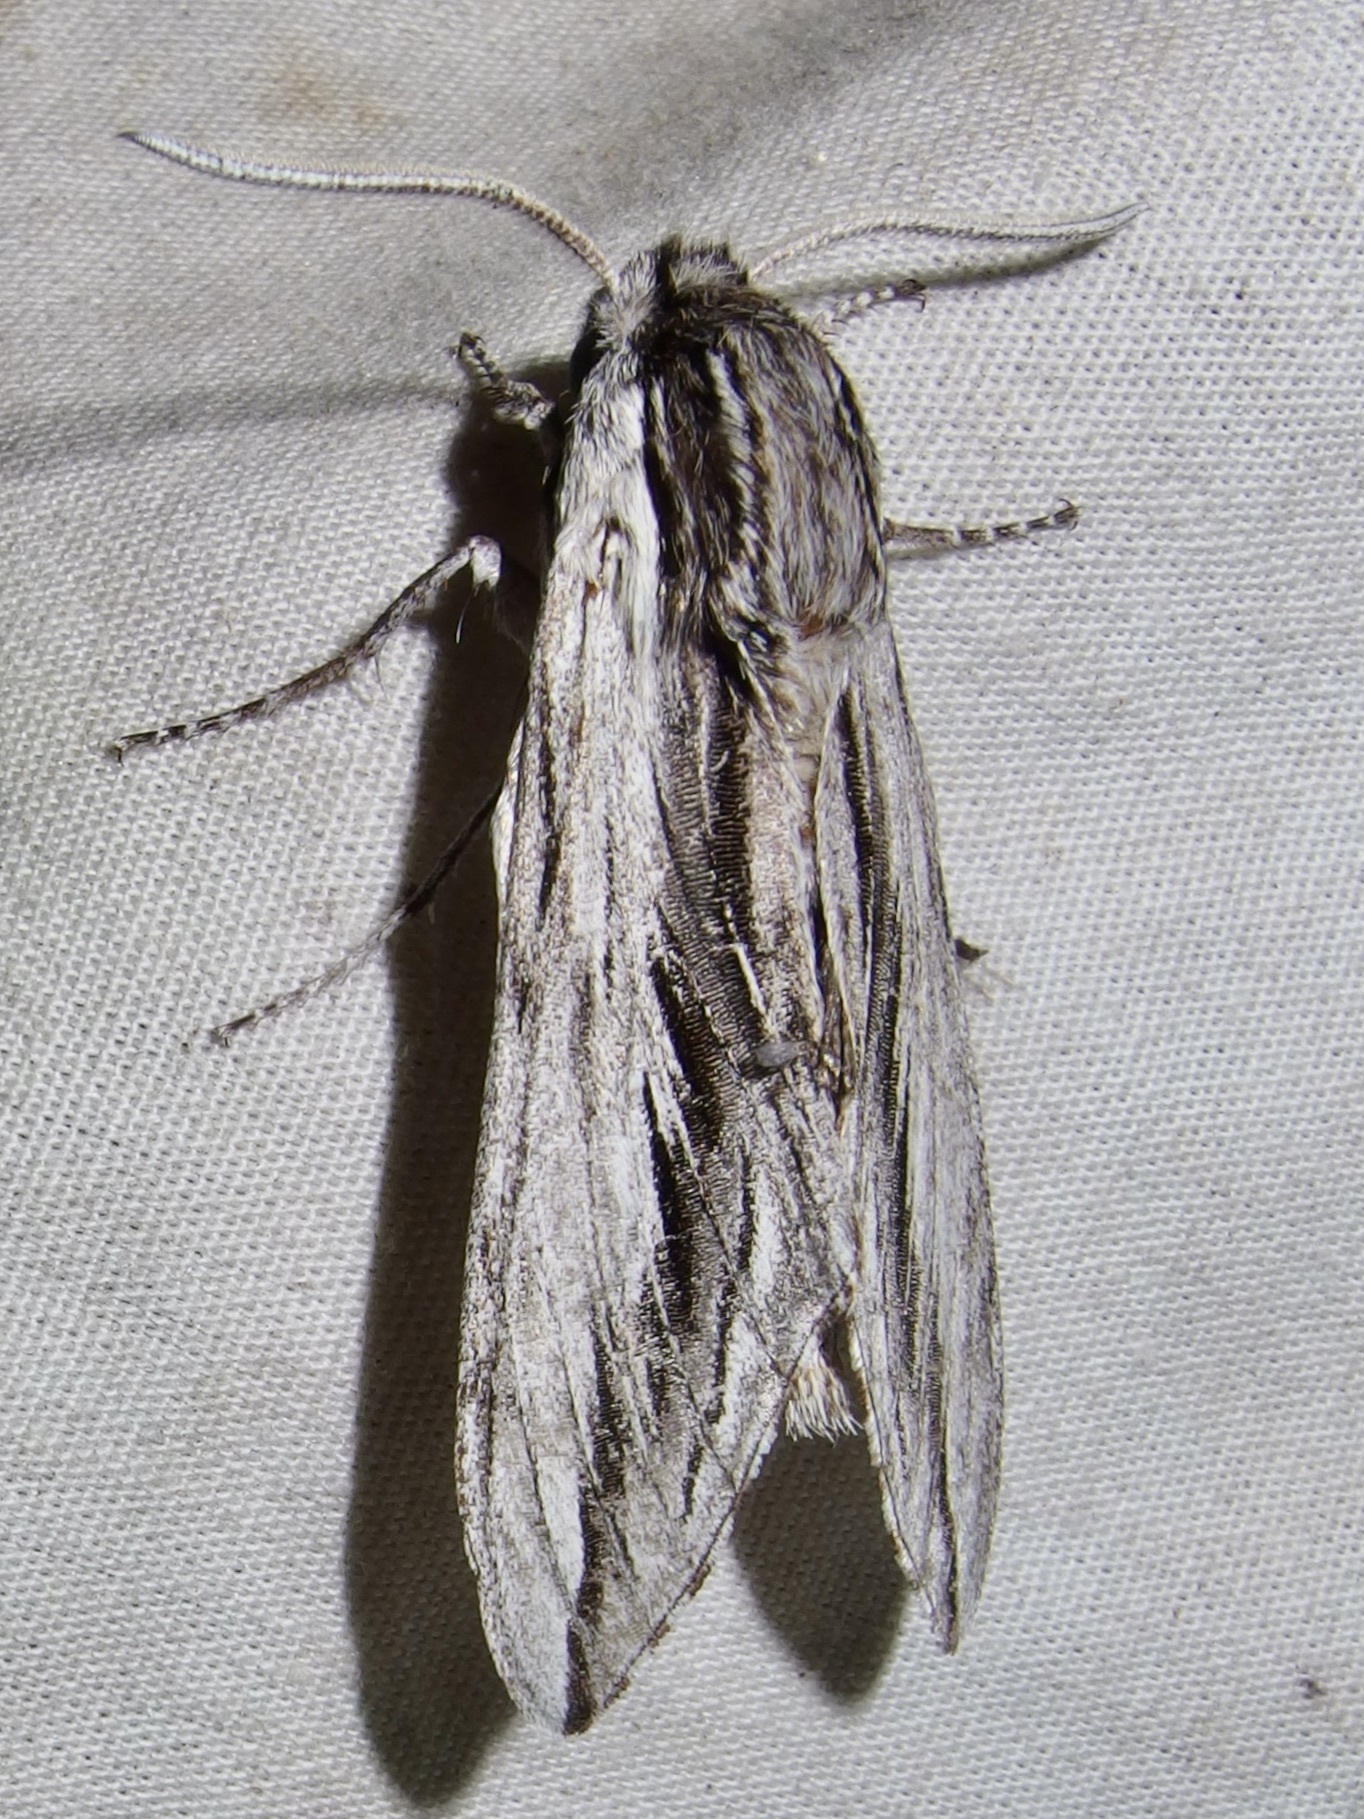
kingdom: Animalia
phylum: Arthropoda
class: Insecta
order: Lepidoptera
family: Sphingidae
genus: Sphinx
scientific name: Sphinx dollii
